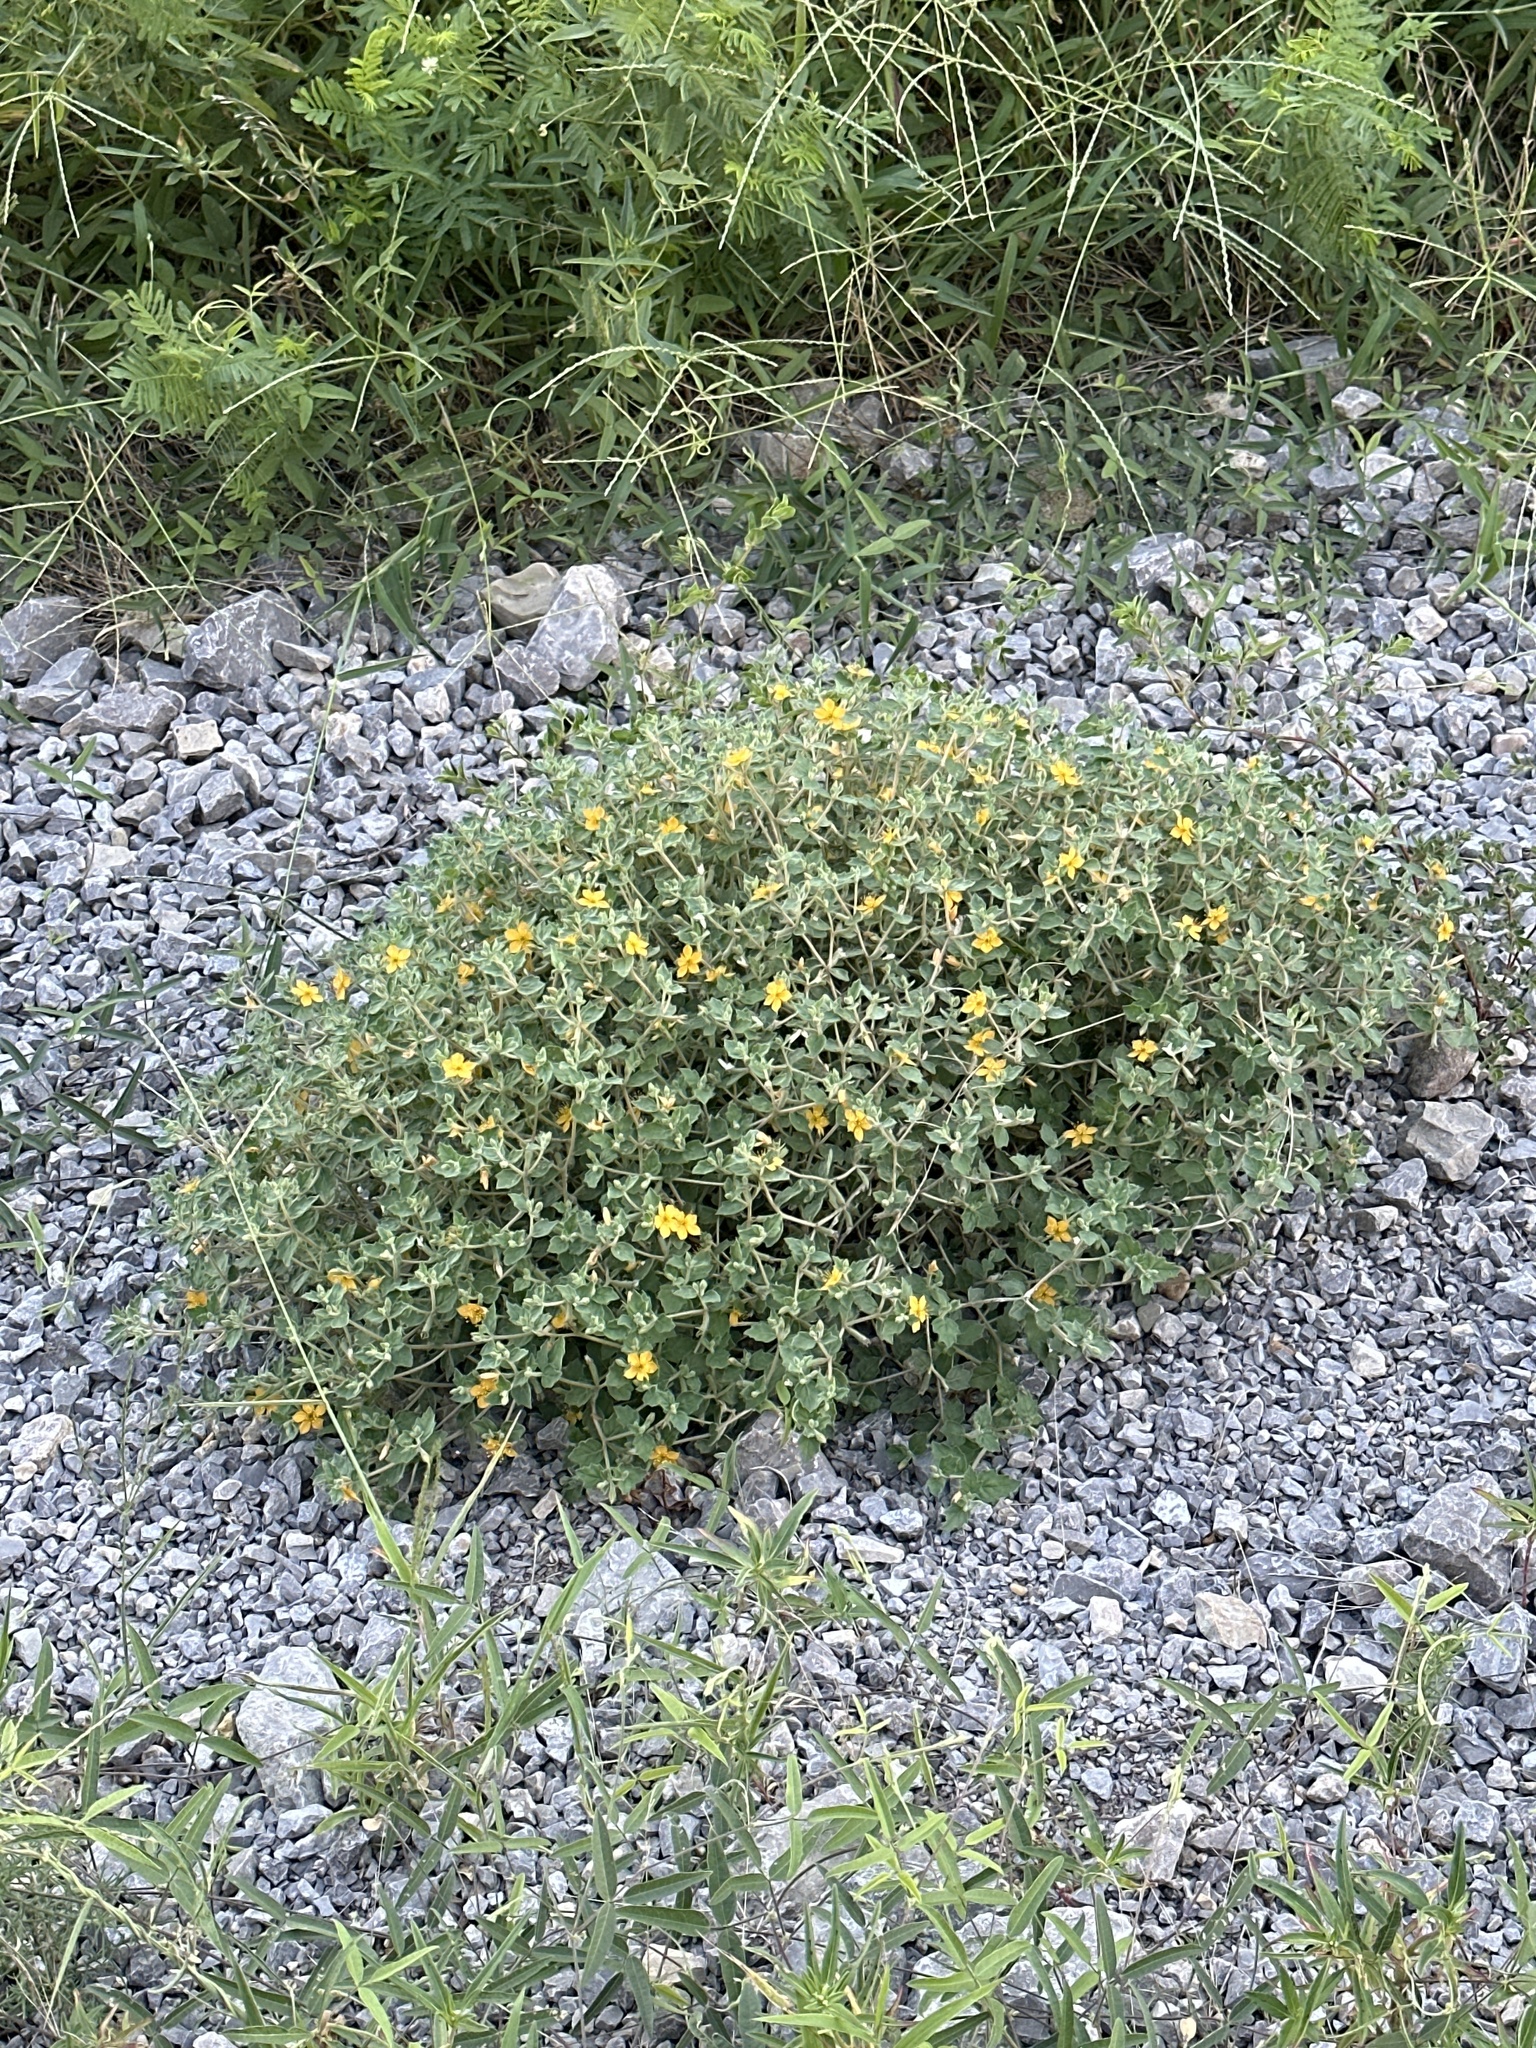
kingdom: Plantae
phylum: Tracheophyta
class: Magnoliopsida
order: Cornales
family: Loasaceae
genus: Mentzelia
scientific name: Mentzelia oligosperma
